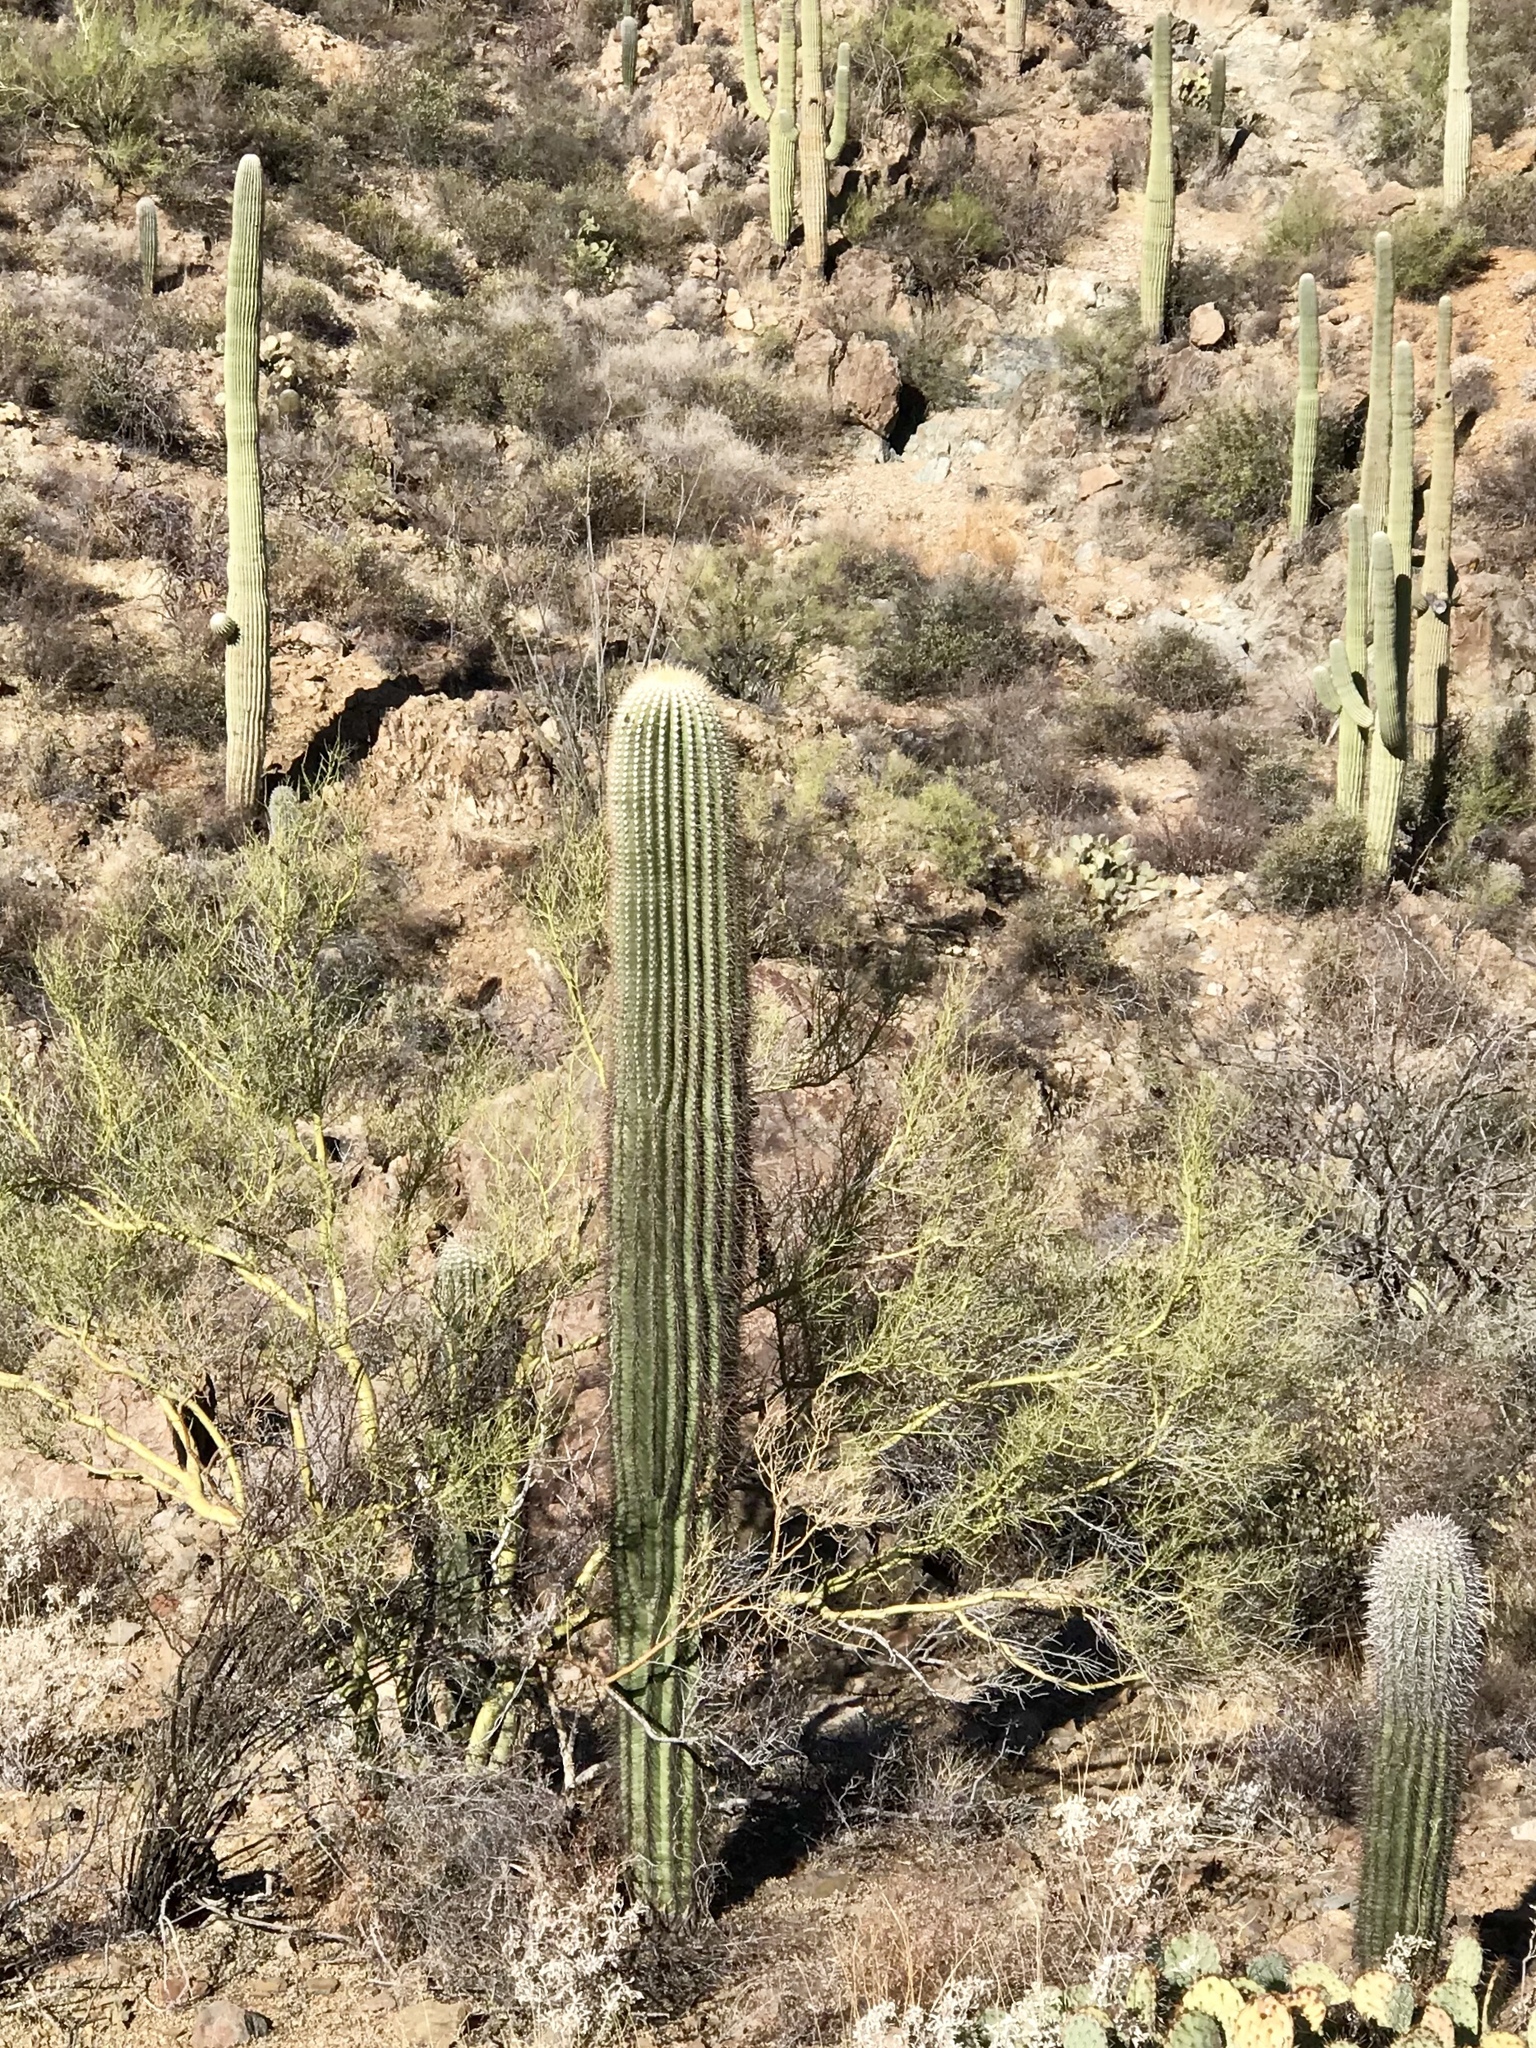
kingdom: Plantae
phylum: Tracheophyta
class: Magnoliopsida
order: Caryophyllales
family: Cactaceae
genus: Carnegiea
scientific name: Carnegiea gigantea
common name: Saguaro
